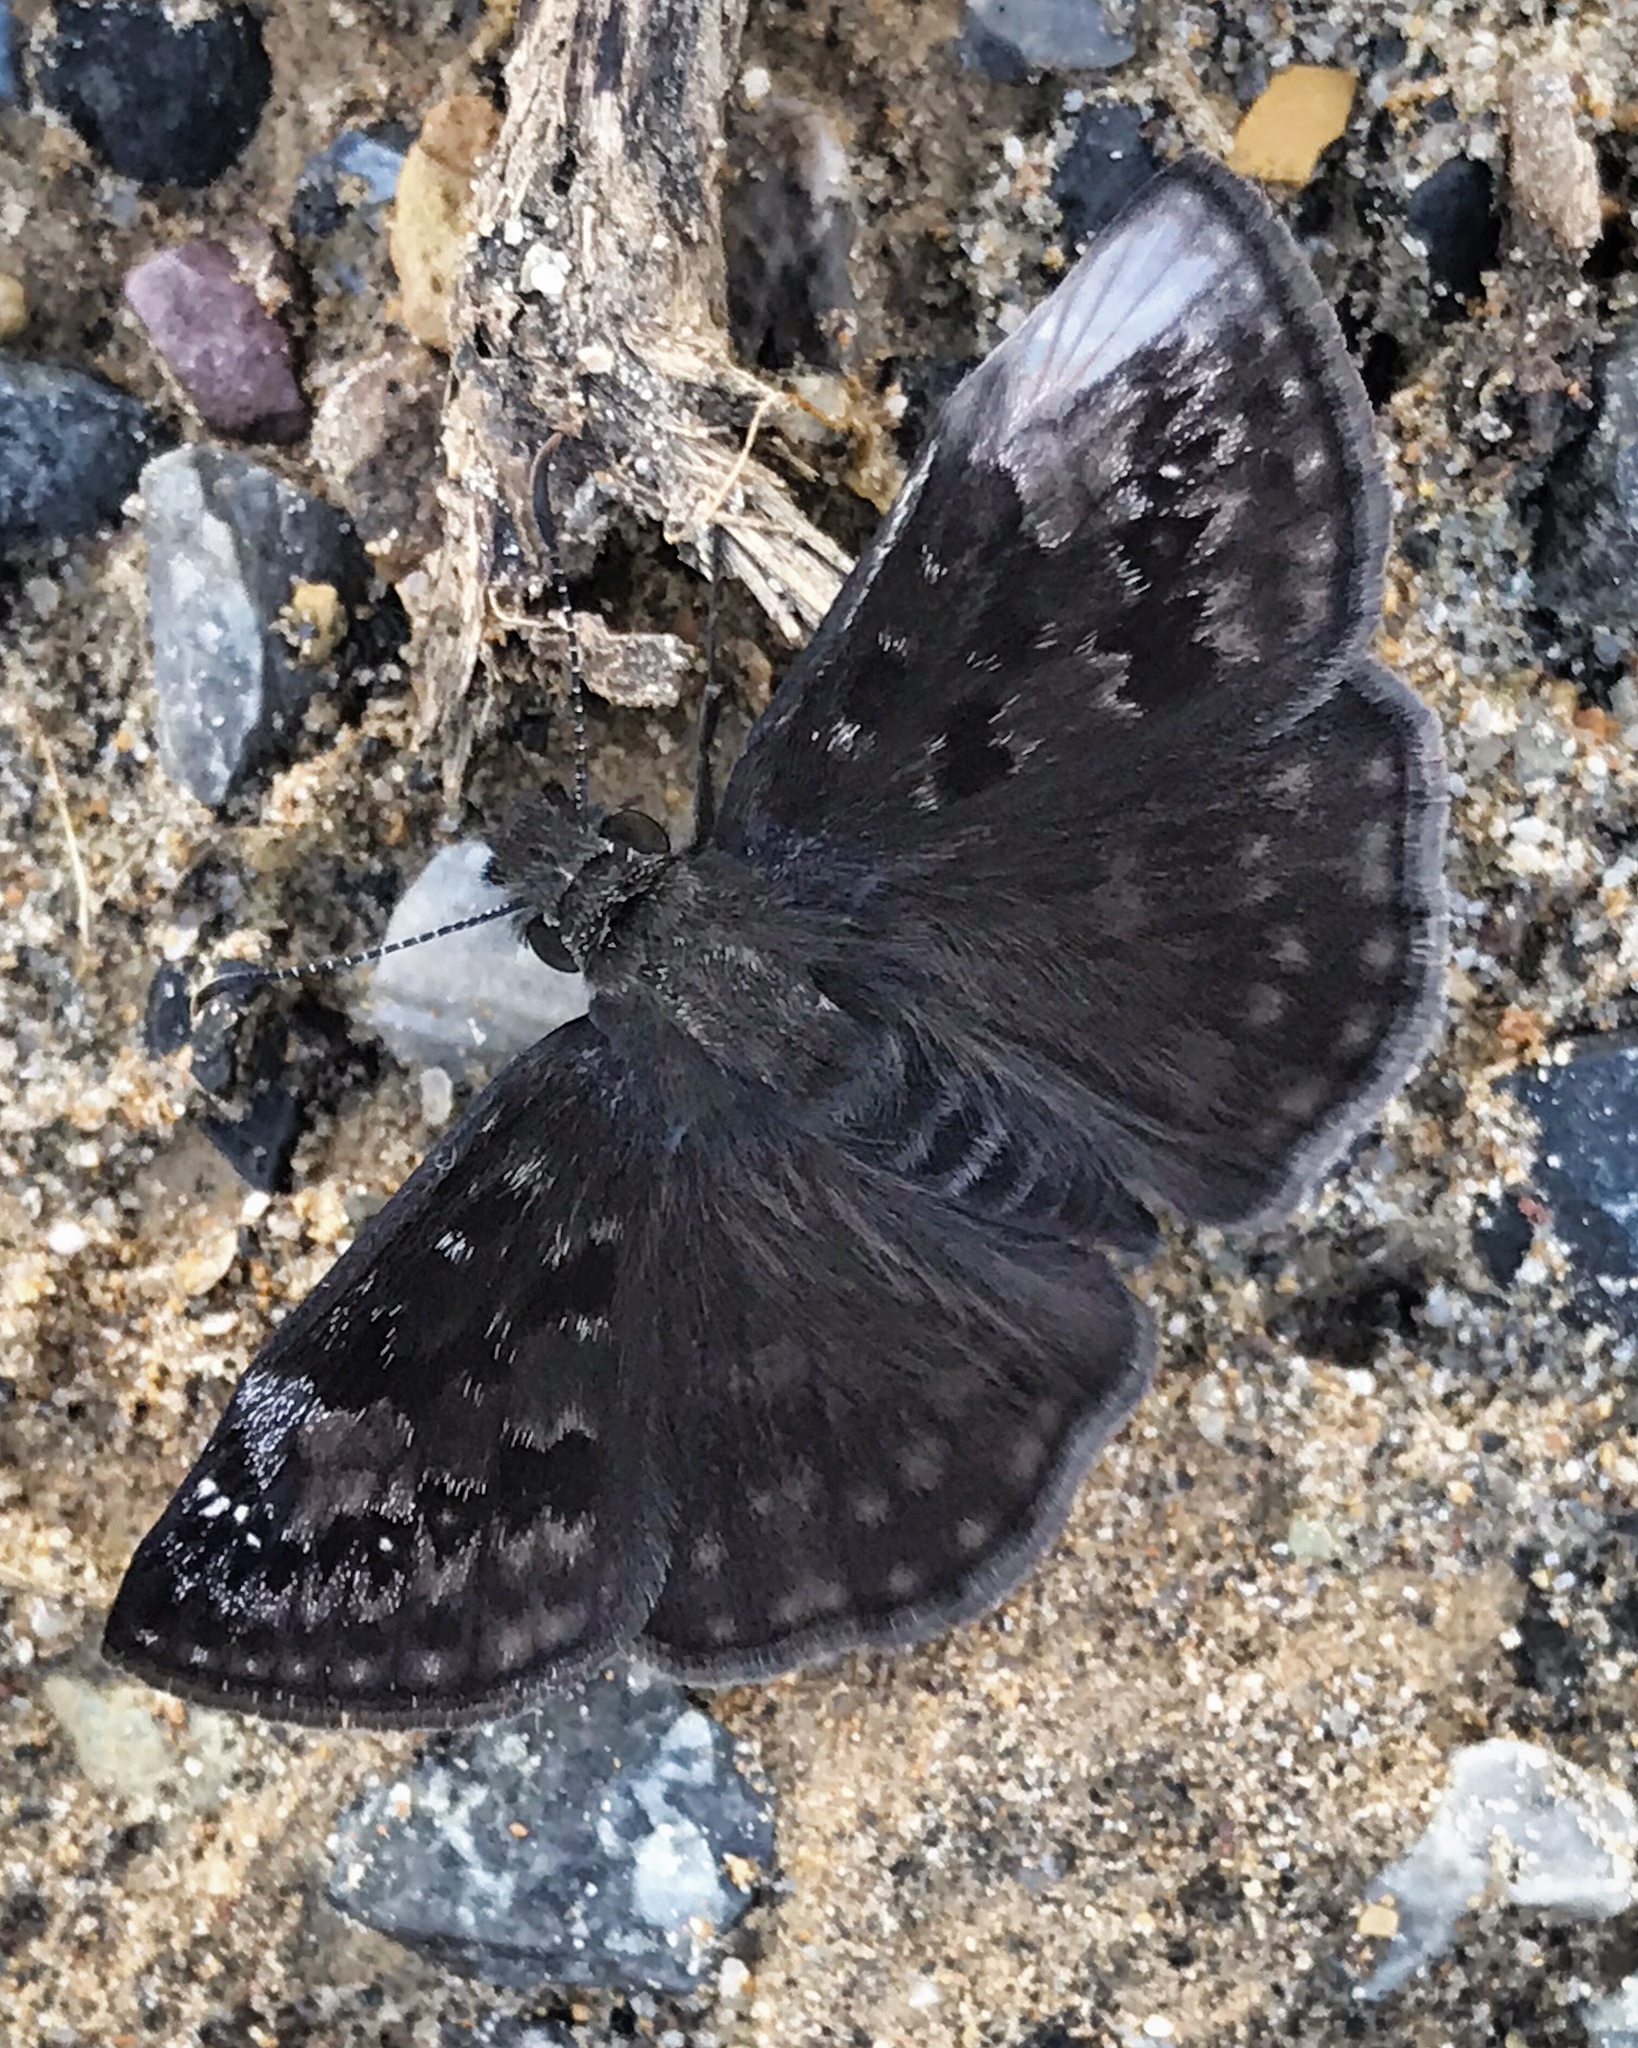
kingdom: Animalia
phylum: Arthropoda
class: Insecta
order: Lepidoptera
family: Hesperiidae
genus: Erynnis
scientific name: Erynnis baptisiae
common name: Wild indigo duskywing
